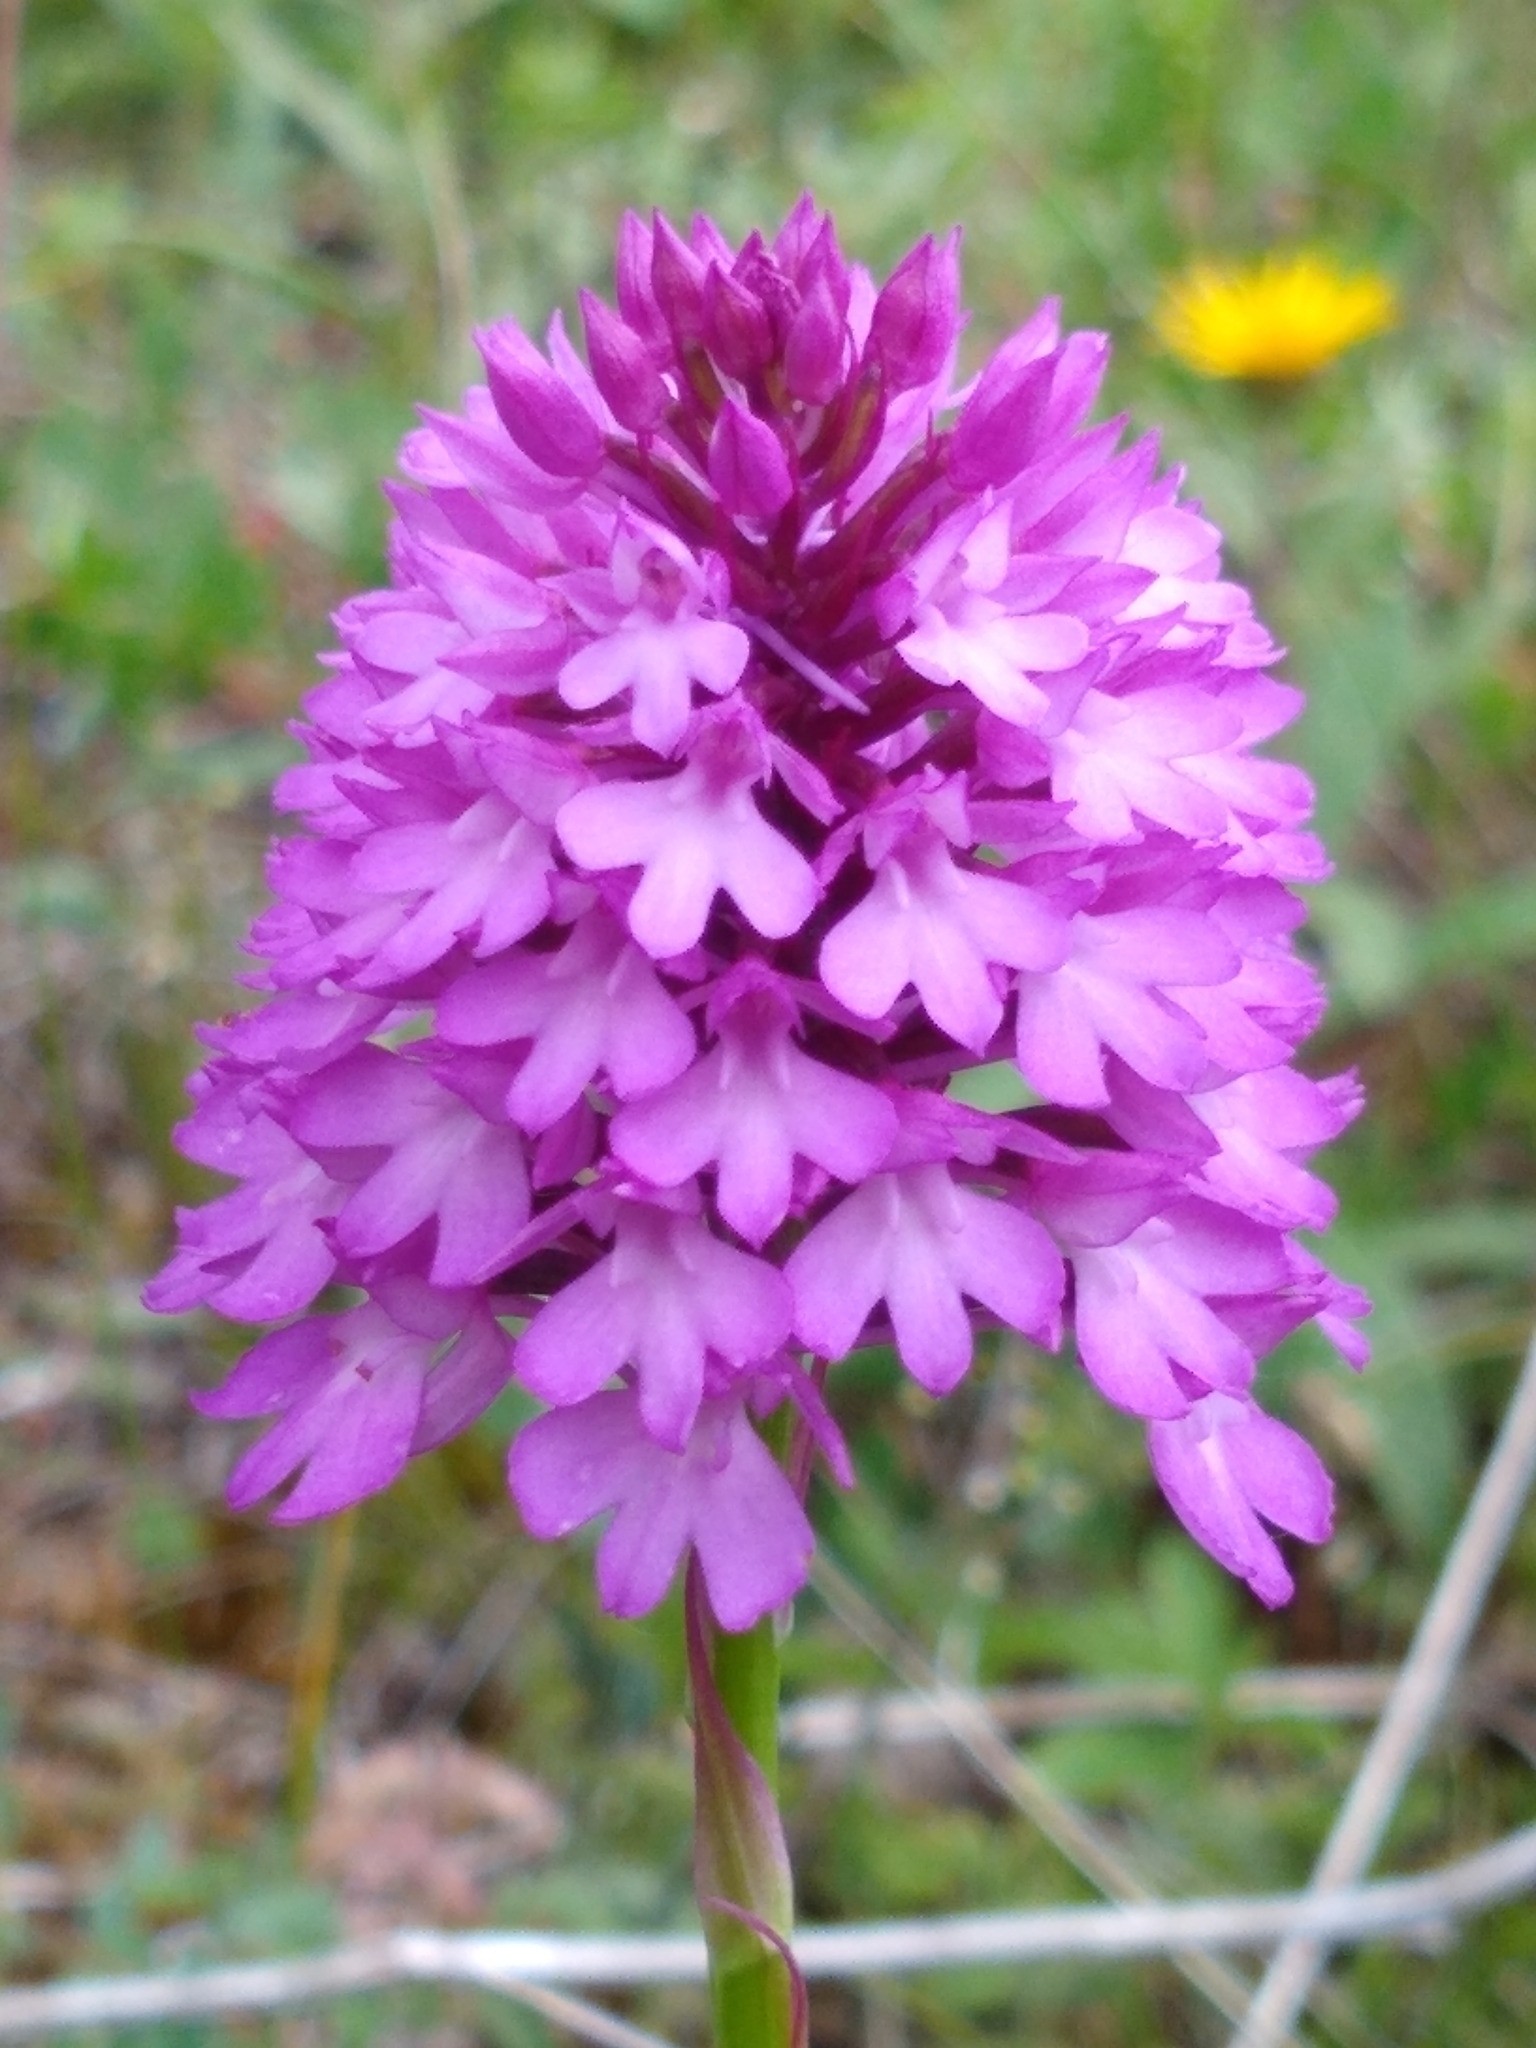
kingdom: Plantae
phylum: Tracheophyta
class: Liliopsida
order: Asparagales
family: Orchidaceae
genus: Anacamptis
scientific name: Anacamptis pyramidalis
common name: Pyramidal orchid
